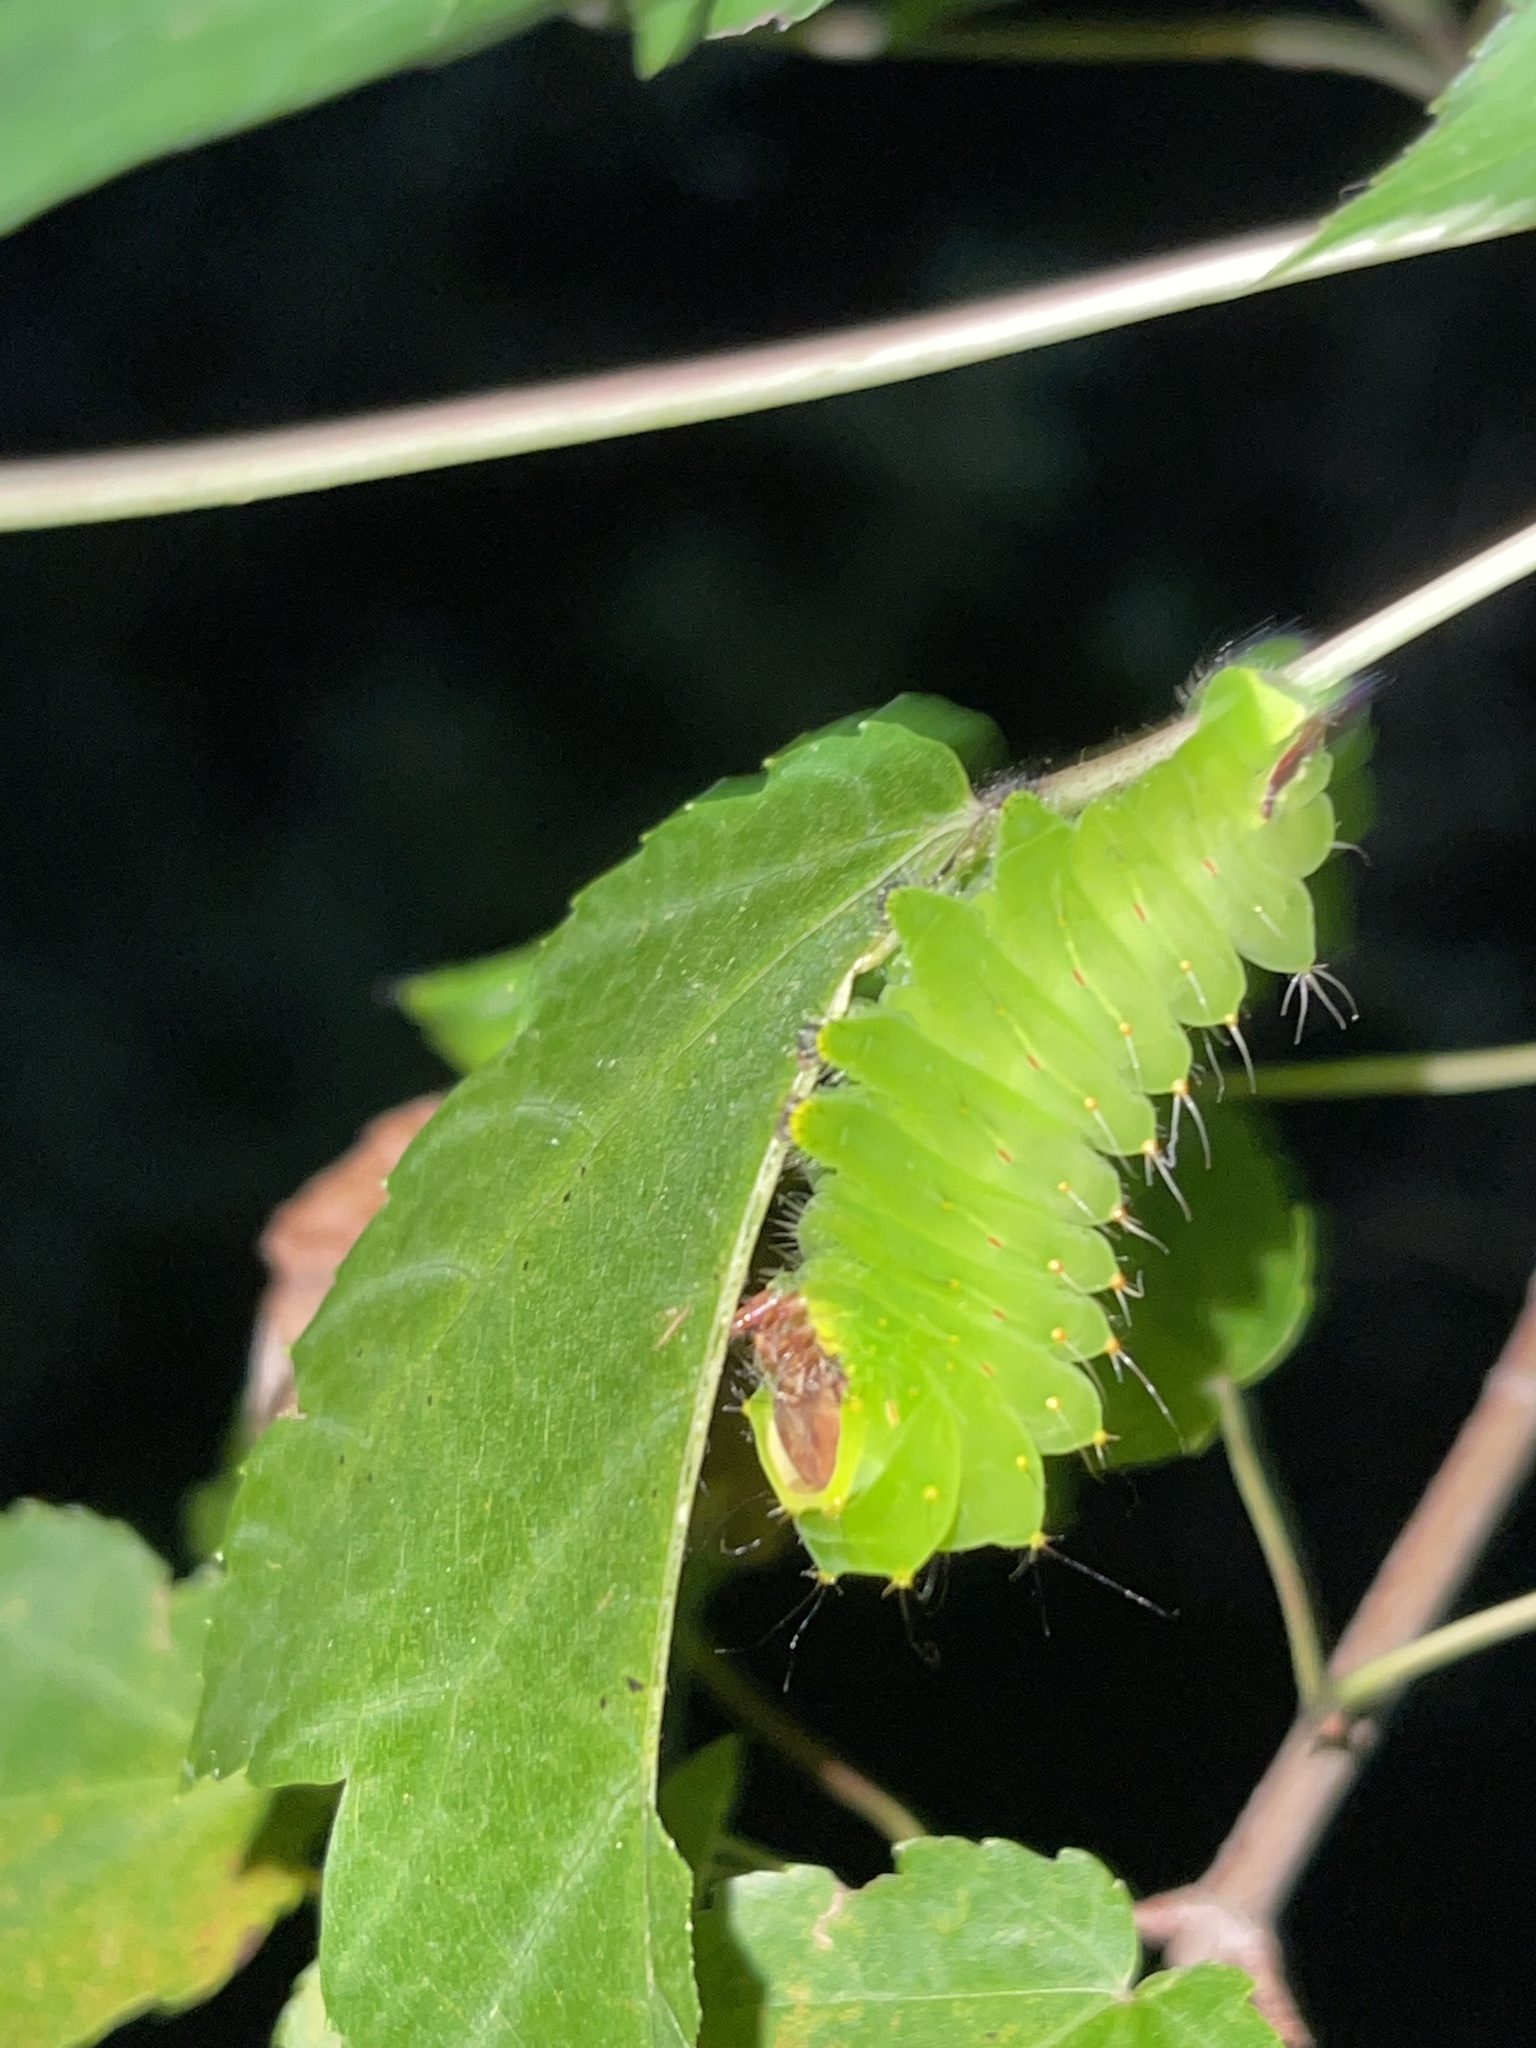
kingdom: Animalia
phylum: Arthropoda
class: Insecta
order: Lepidoptera
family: Saturniidae
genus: Antheraea
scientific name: Antheraea polyphemus
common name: Polyphemus moth
